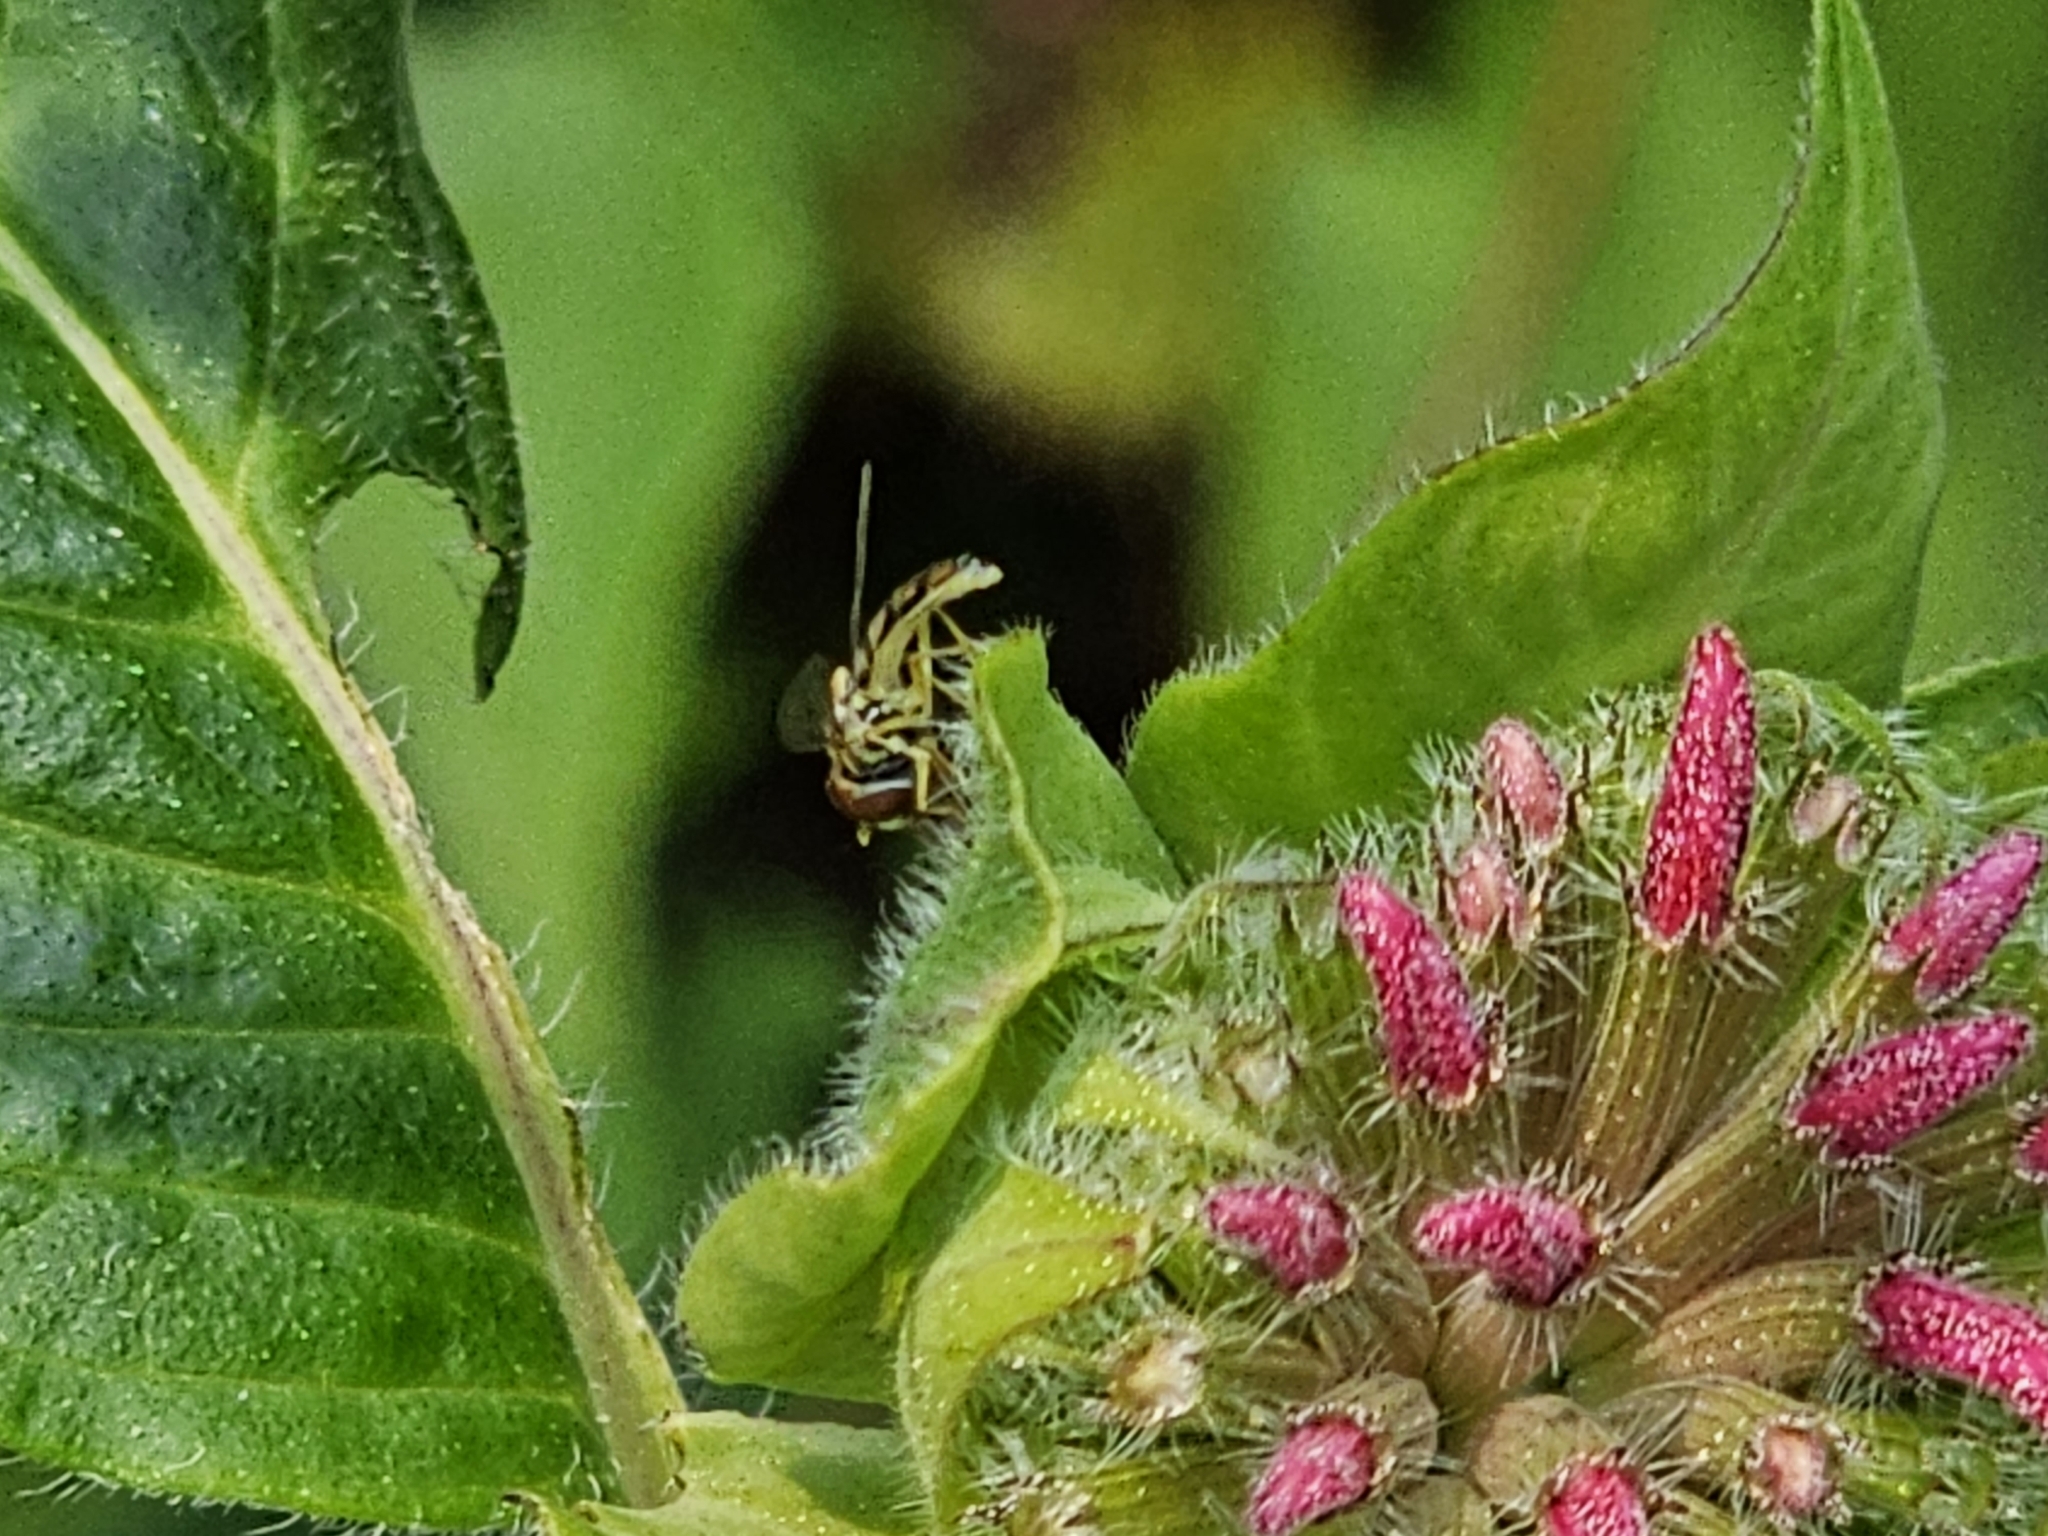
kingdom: Animalia
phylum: Arthropoda
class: Insecta
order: Diptera
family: Syrphidae
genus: Toxomerus
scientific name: Toxomerus marginatus
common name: Syrphid fly
